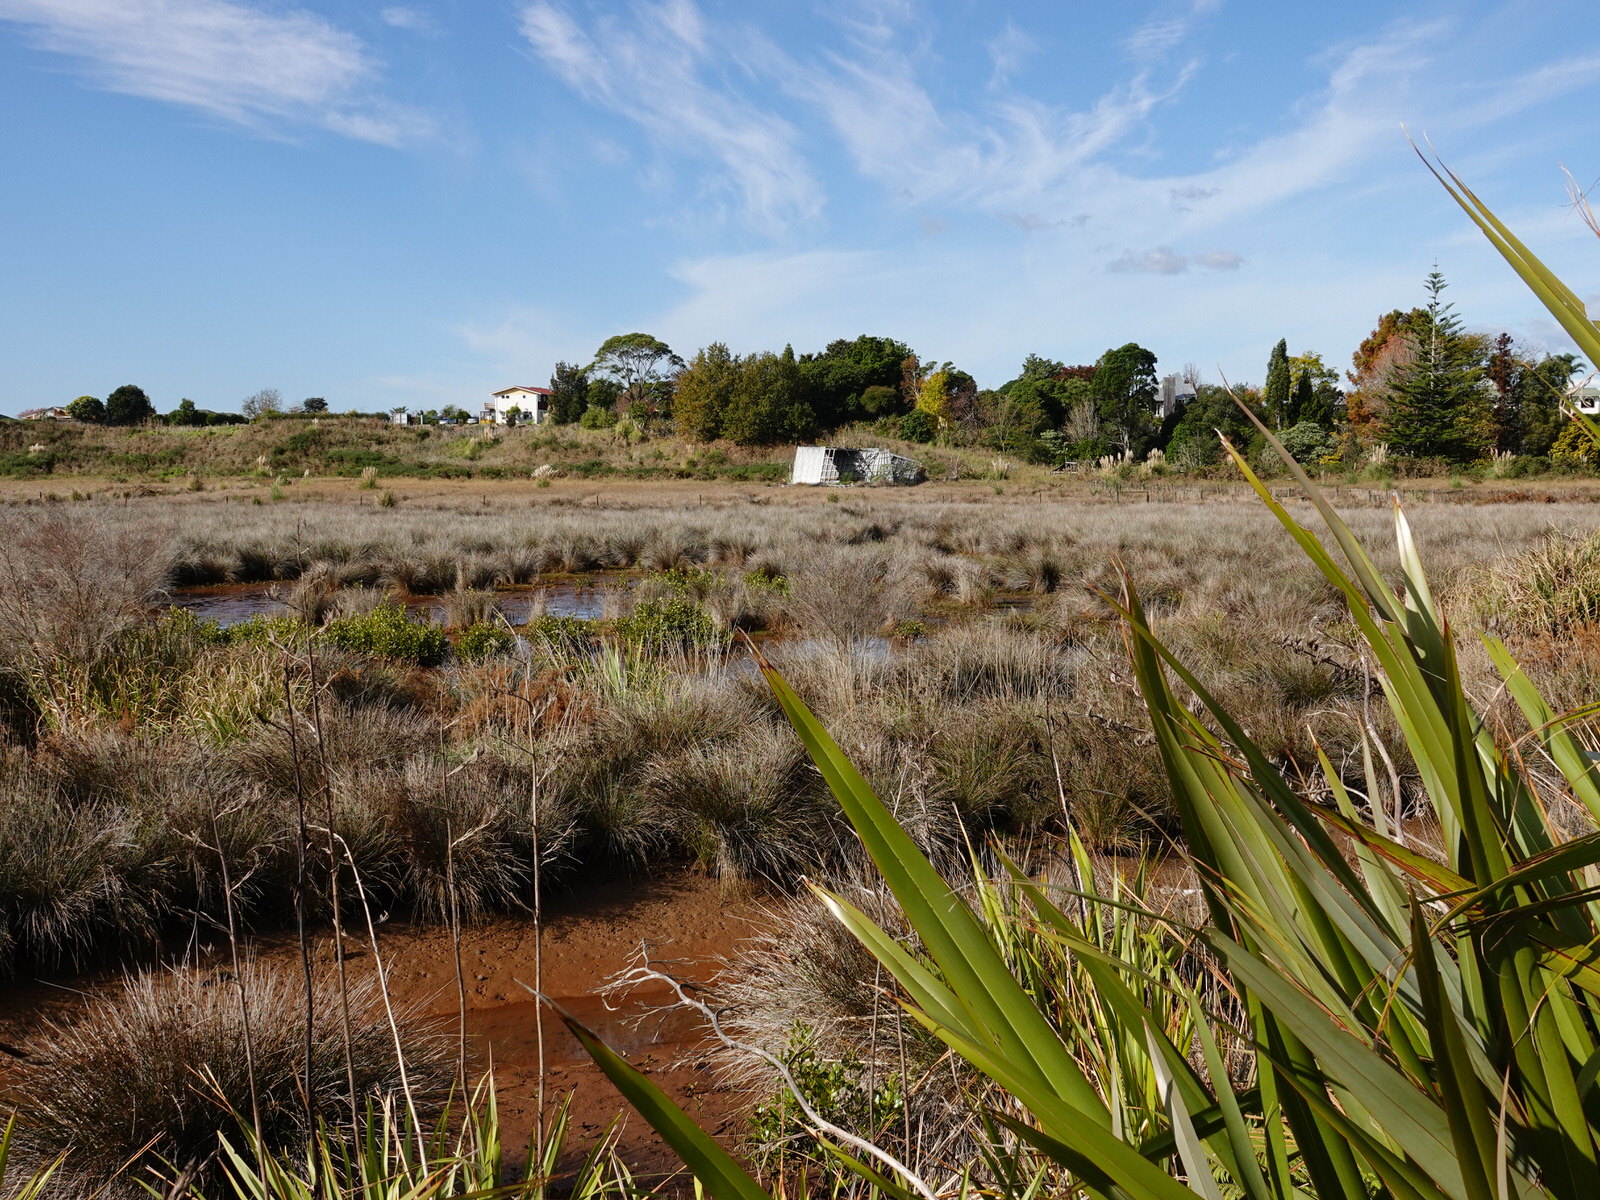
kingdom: Animalia
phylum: Chordata
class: Aves
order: Gruiformes
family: Rallidae
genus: Gallirallus
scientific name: Gallirallus philippensis
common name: Buff-banded rail
